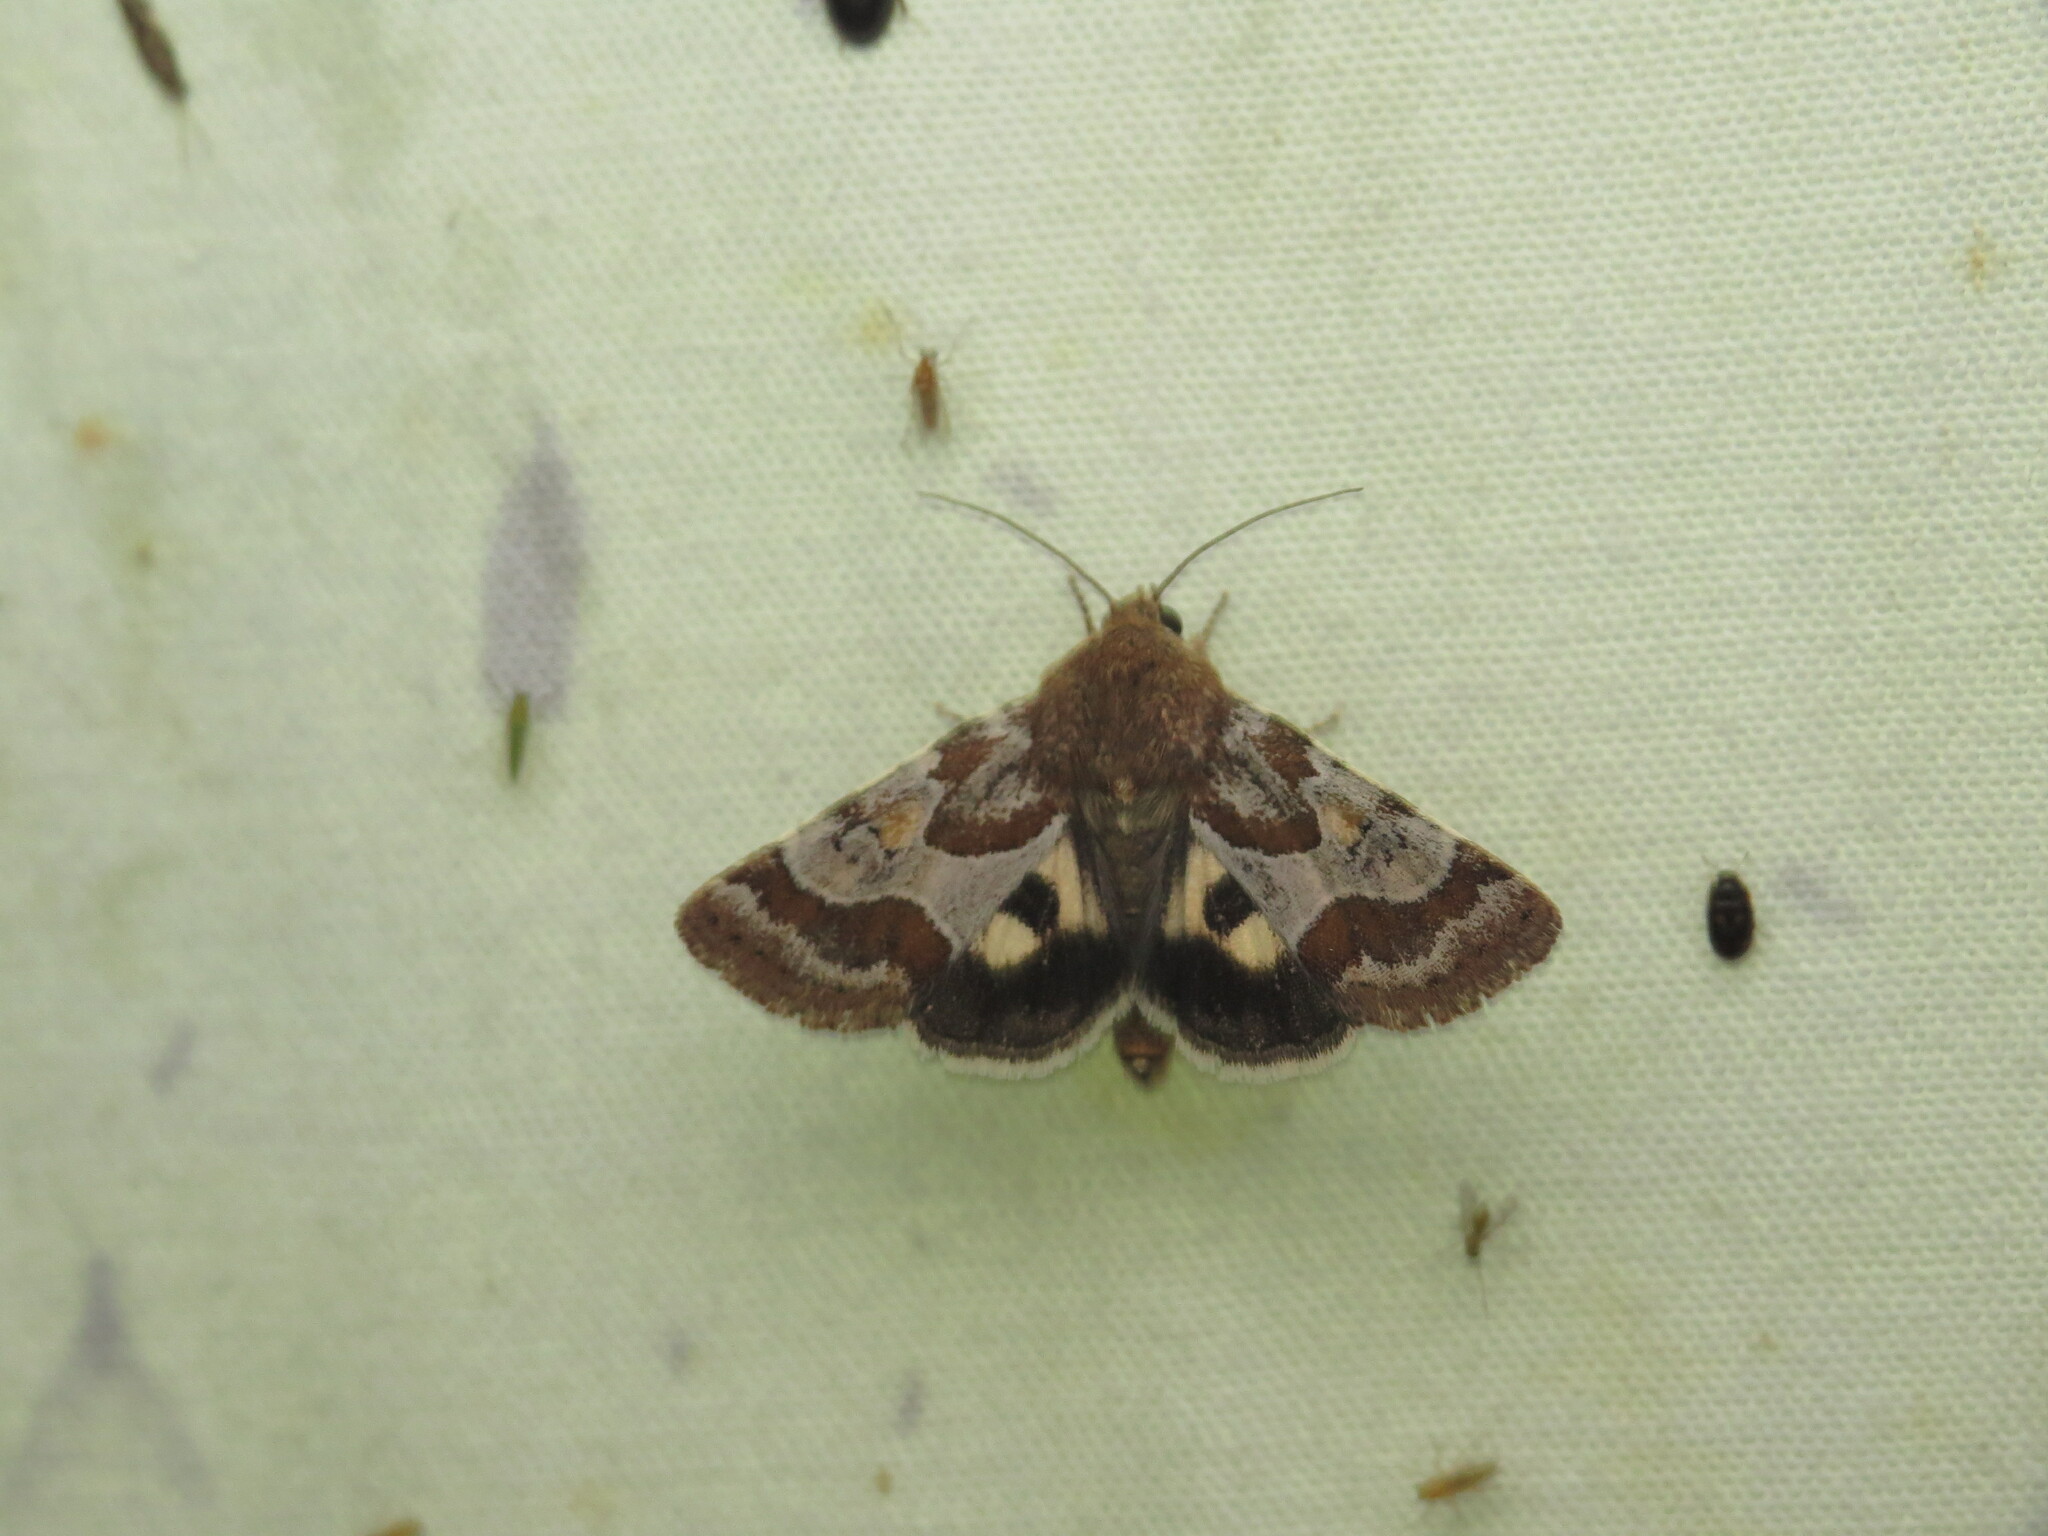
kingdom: Animalia
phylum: Arthropoda
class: Insecta
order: Lepidoptera
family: Noctuidae
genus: Schinia
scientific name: Schinia spinosae
